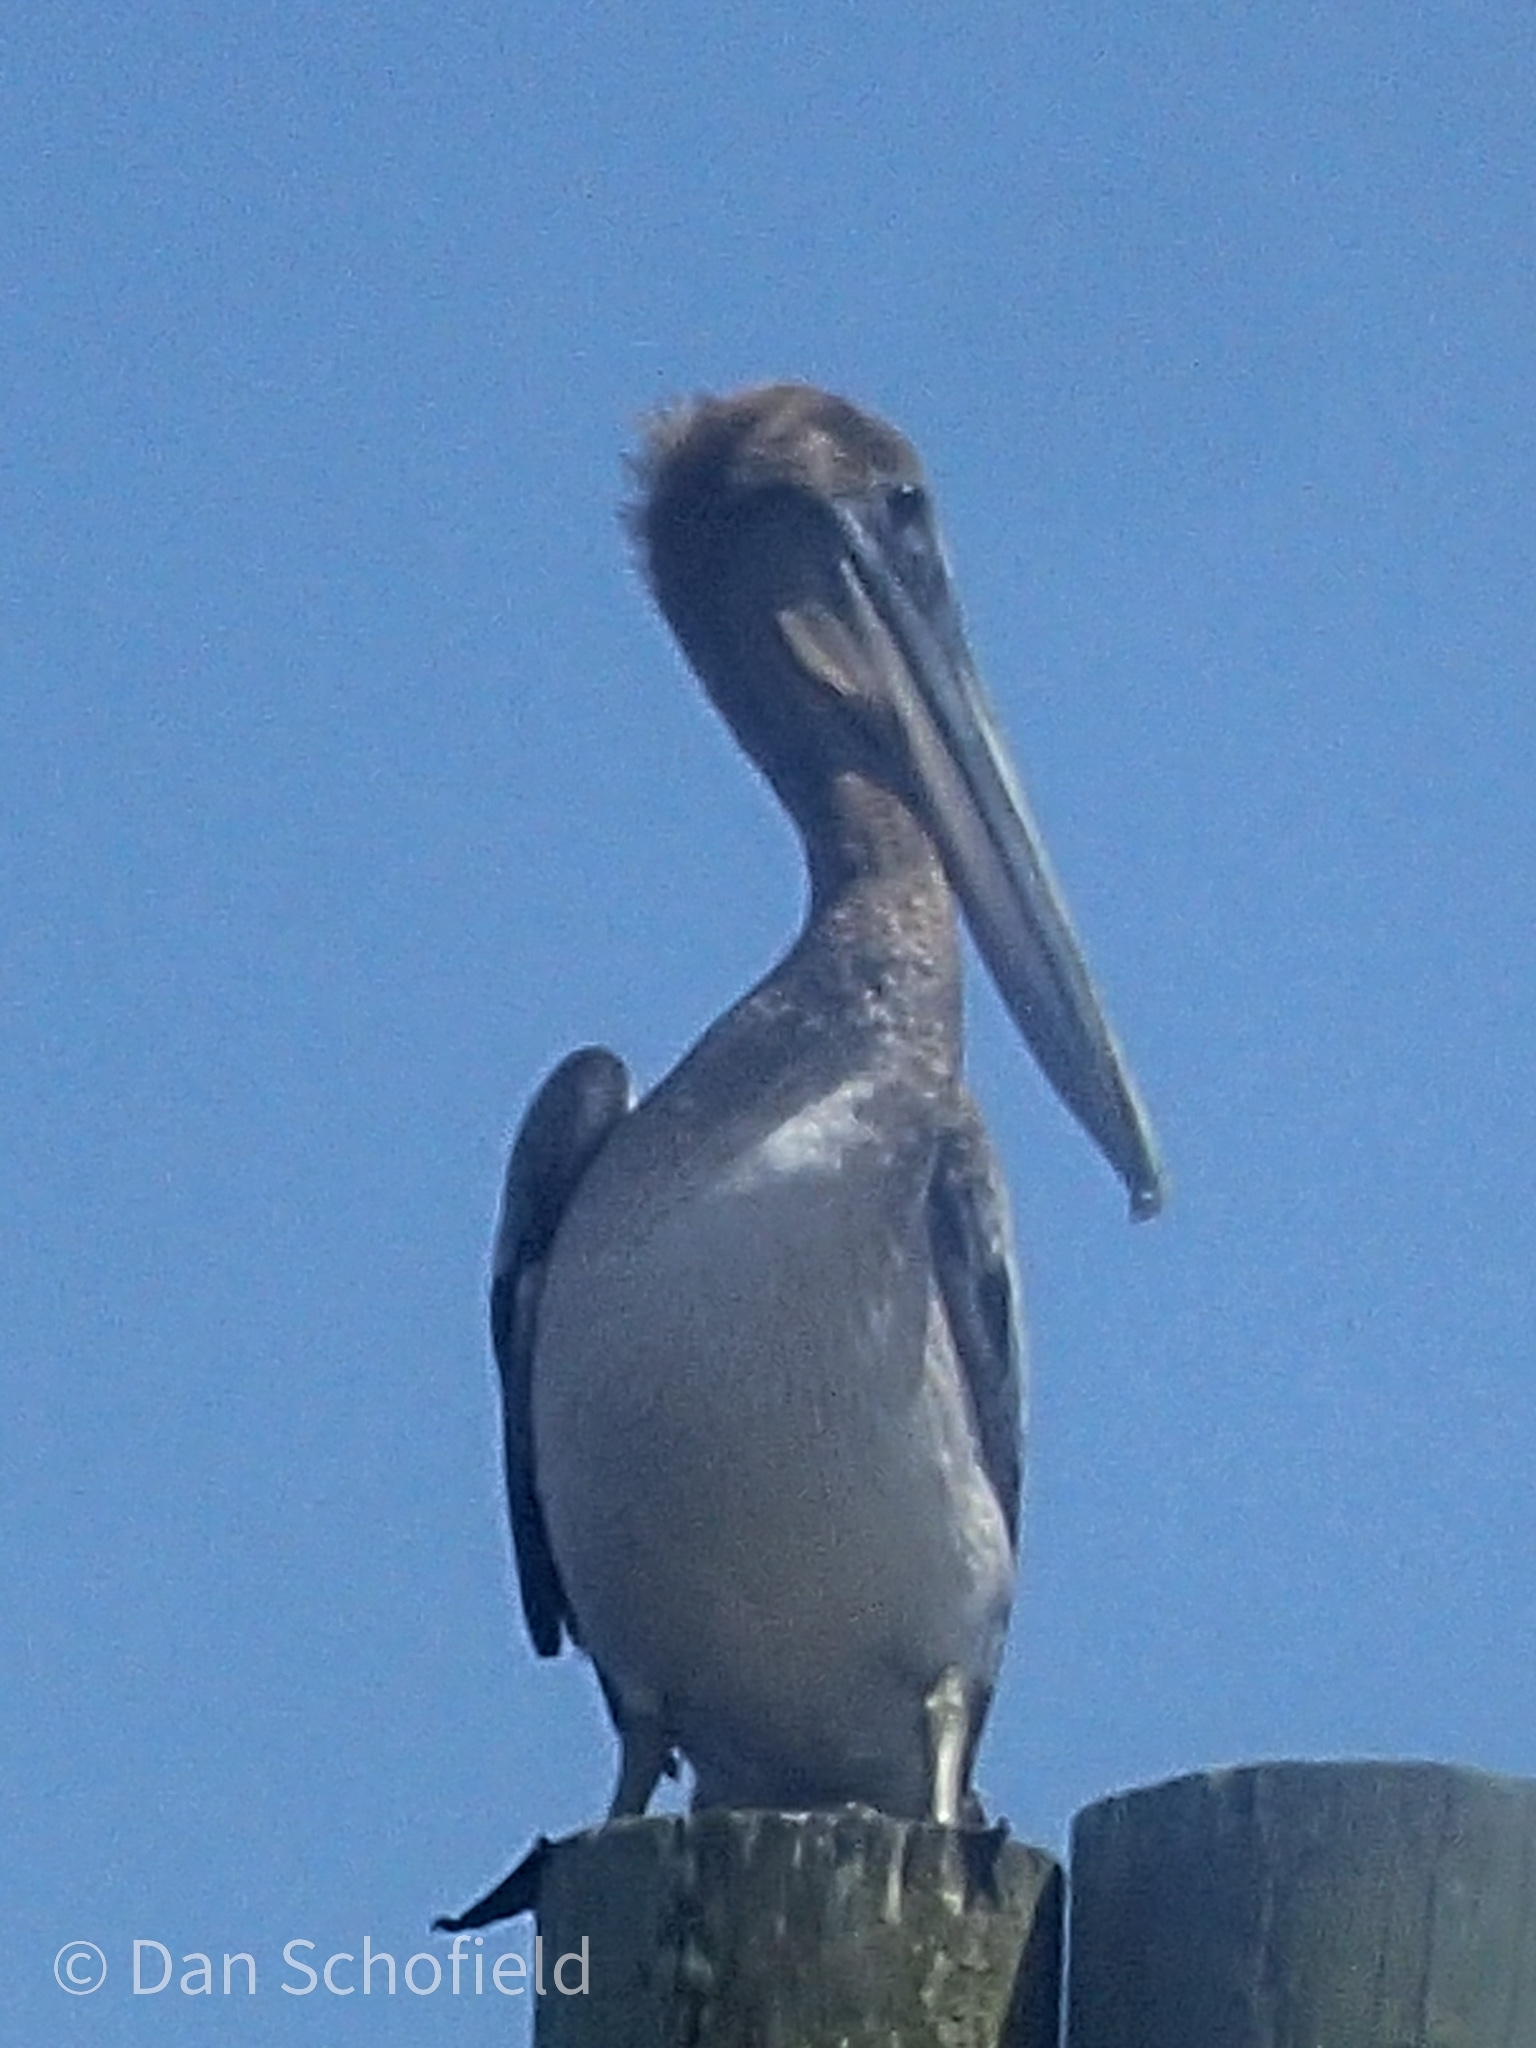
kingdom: Animalia
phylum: Chordata
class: Aves
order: Pelecaniformes
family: Pelecanidae
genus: Pelecanus
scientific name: Pelecanus occidentalis
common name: Brown pelican
